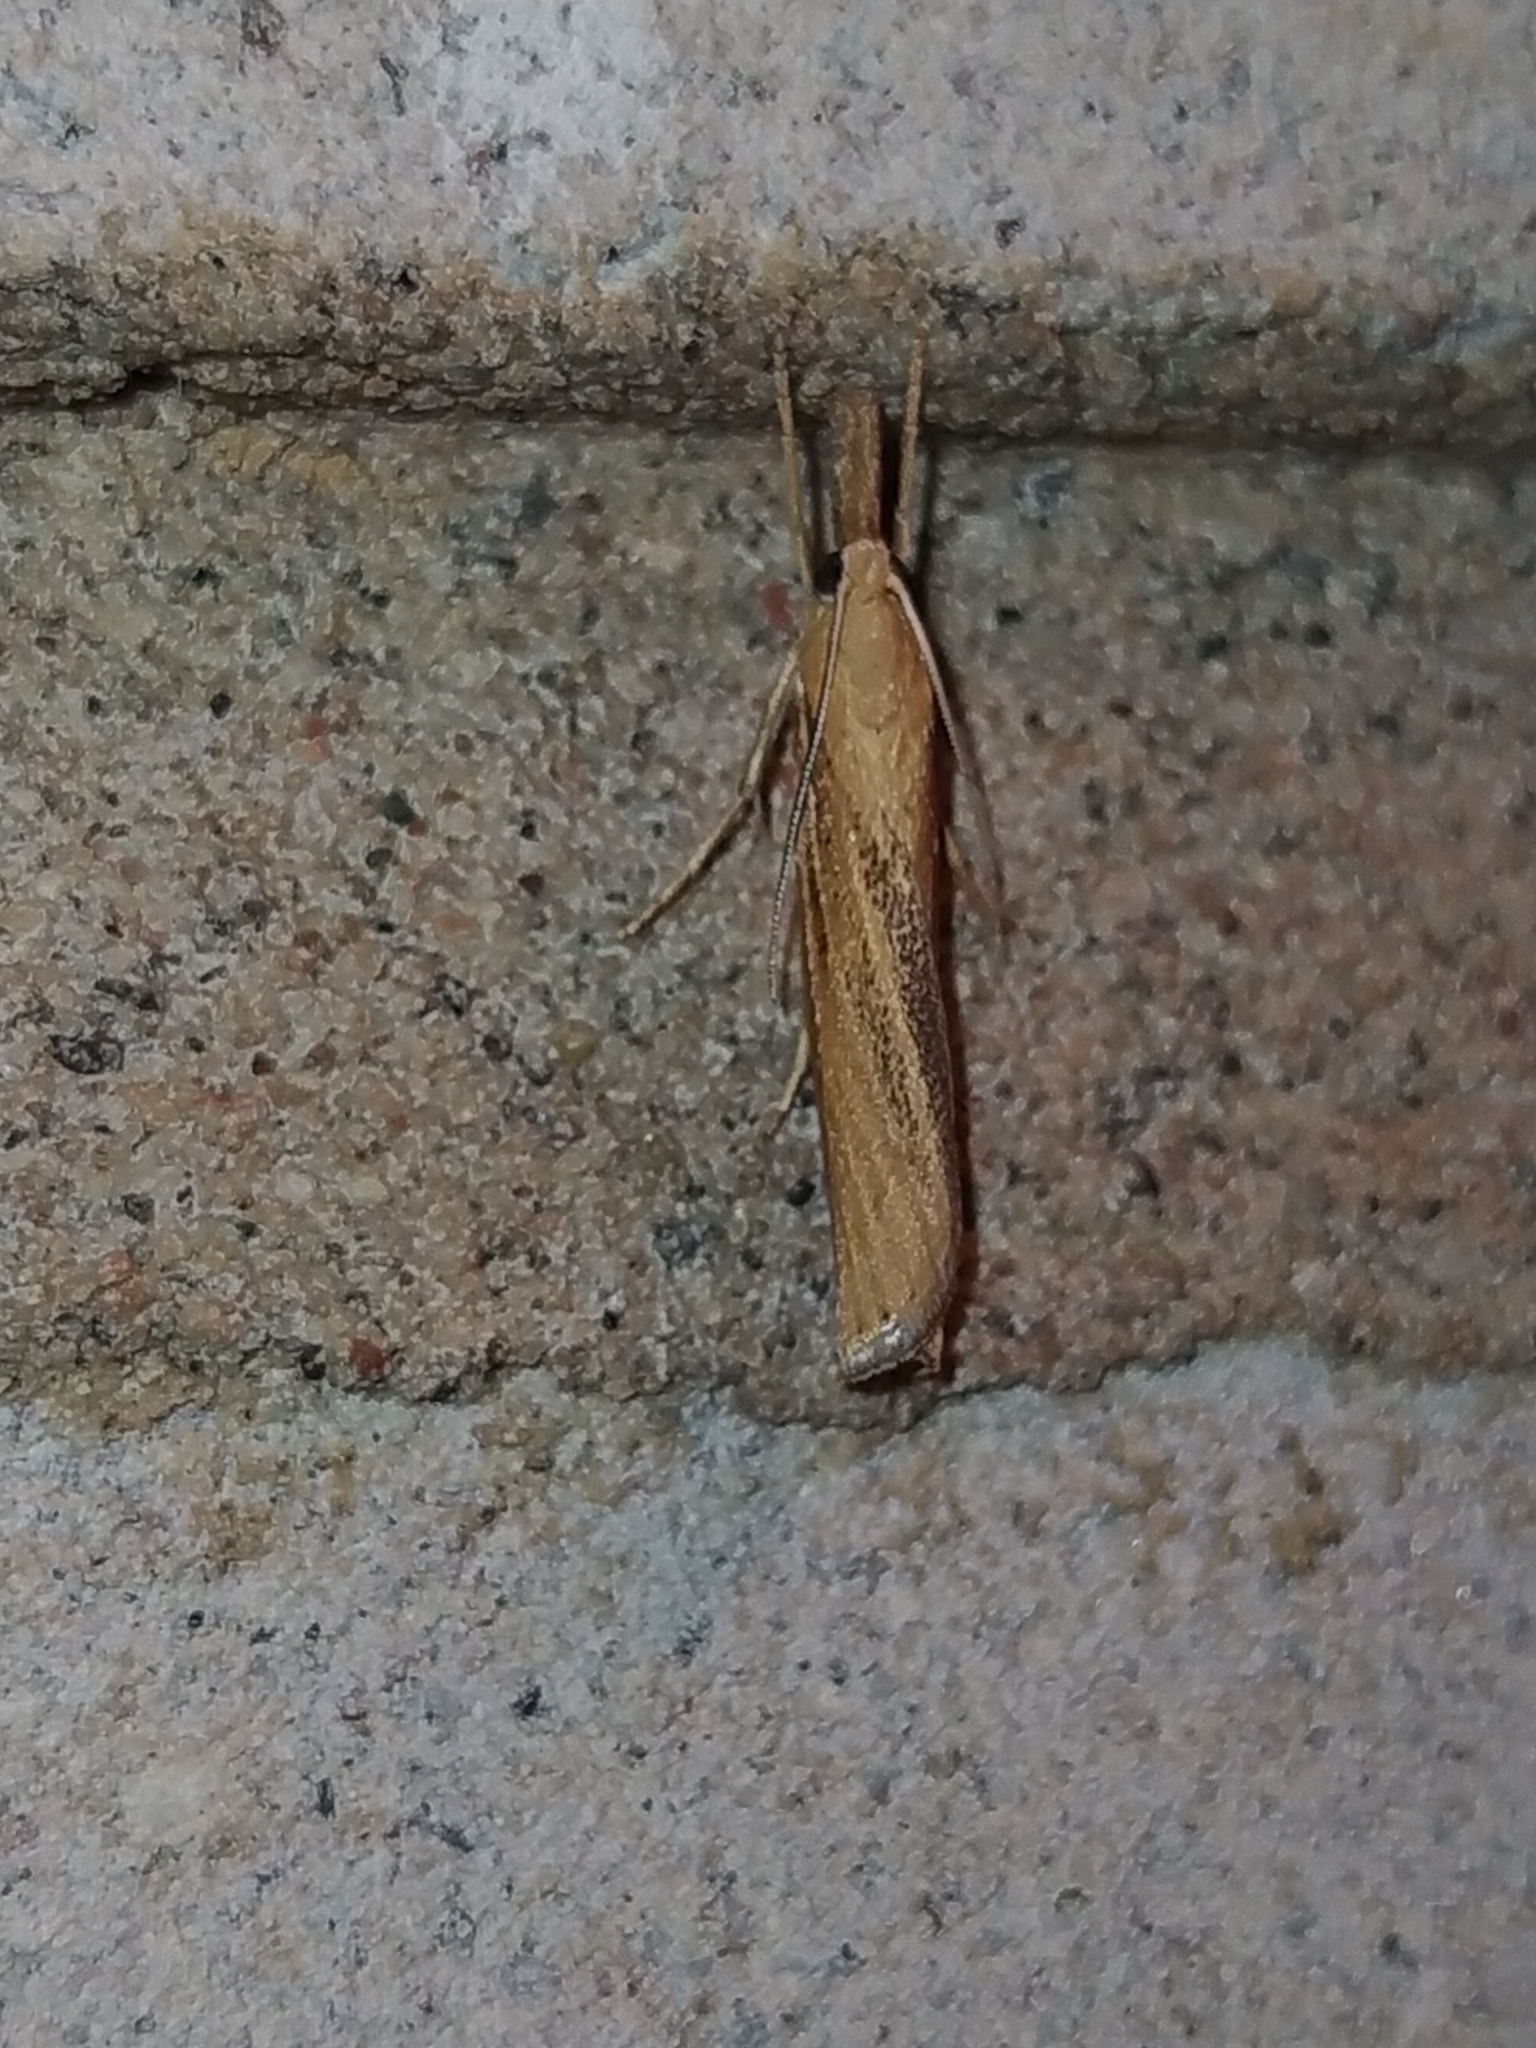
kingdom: Animalia
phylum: Arthropoda
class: Insecta
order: Lepidoptera
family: Crambidae
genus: Agriphila
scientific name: Agriphila tristellus
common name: Common grass-veneer
